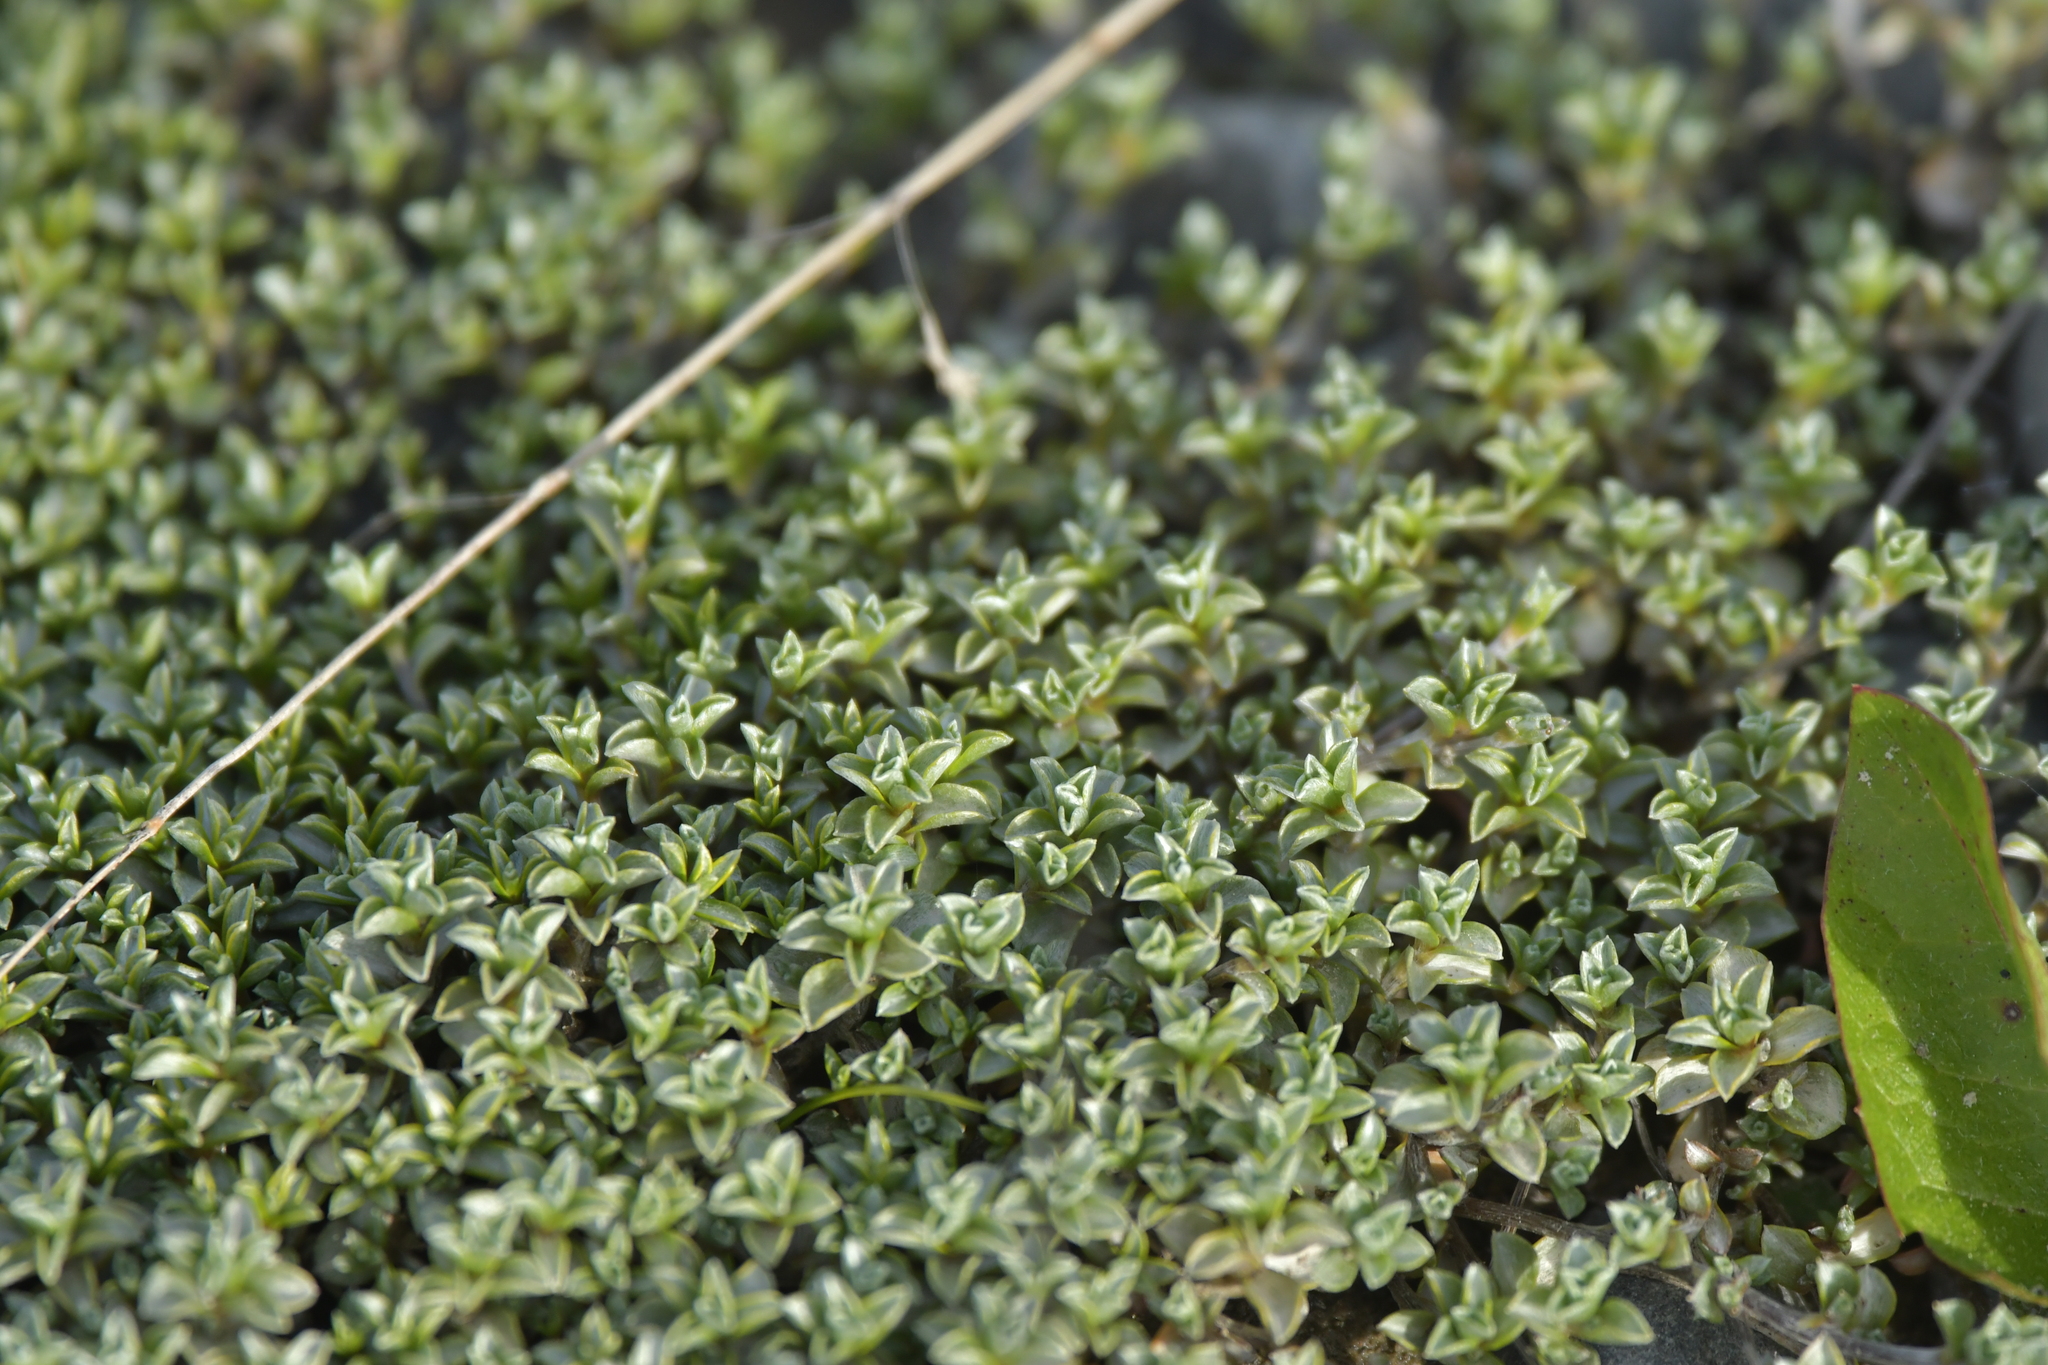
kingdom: Plantae
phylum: Tracheophyta
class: Magnoliopsida
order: Asterales
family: Asteraceae
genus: Raoulia
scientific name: Raoulia tenuicaulis
